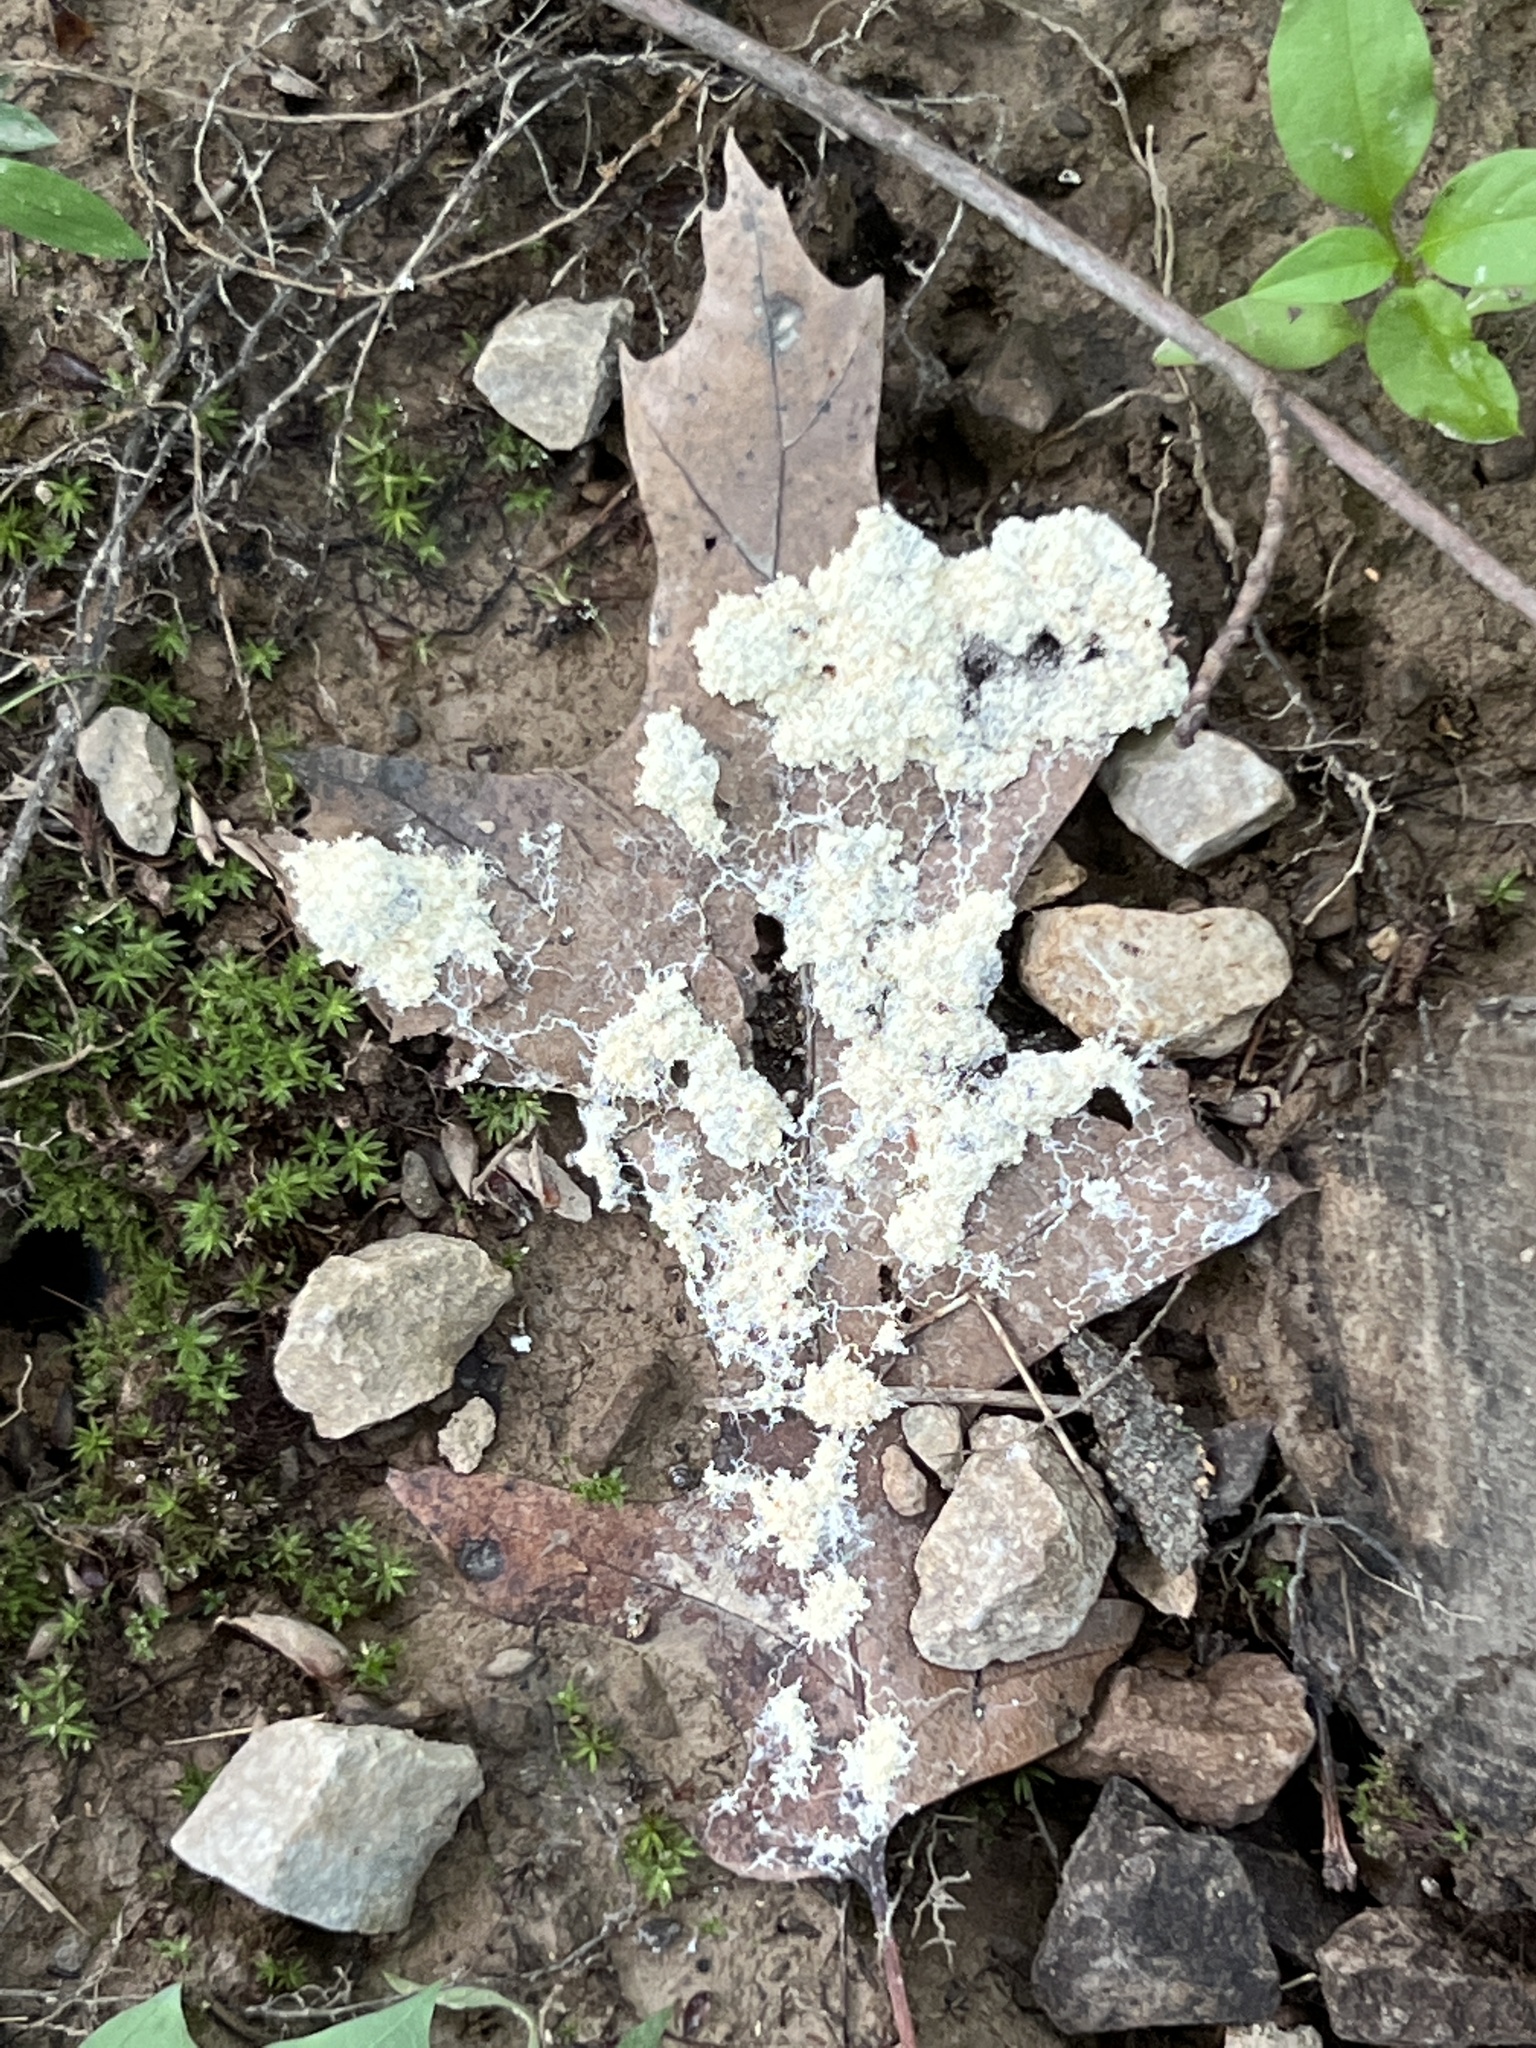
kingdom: Protozoa
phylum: Mycetozoa
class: Myxomycetes
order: Physarales
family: Physaraceae
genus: Fuligo
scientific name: Fuligo septica
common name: Dog vomit slime mold
